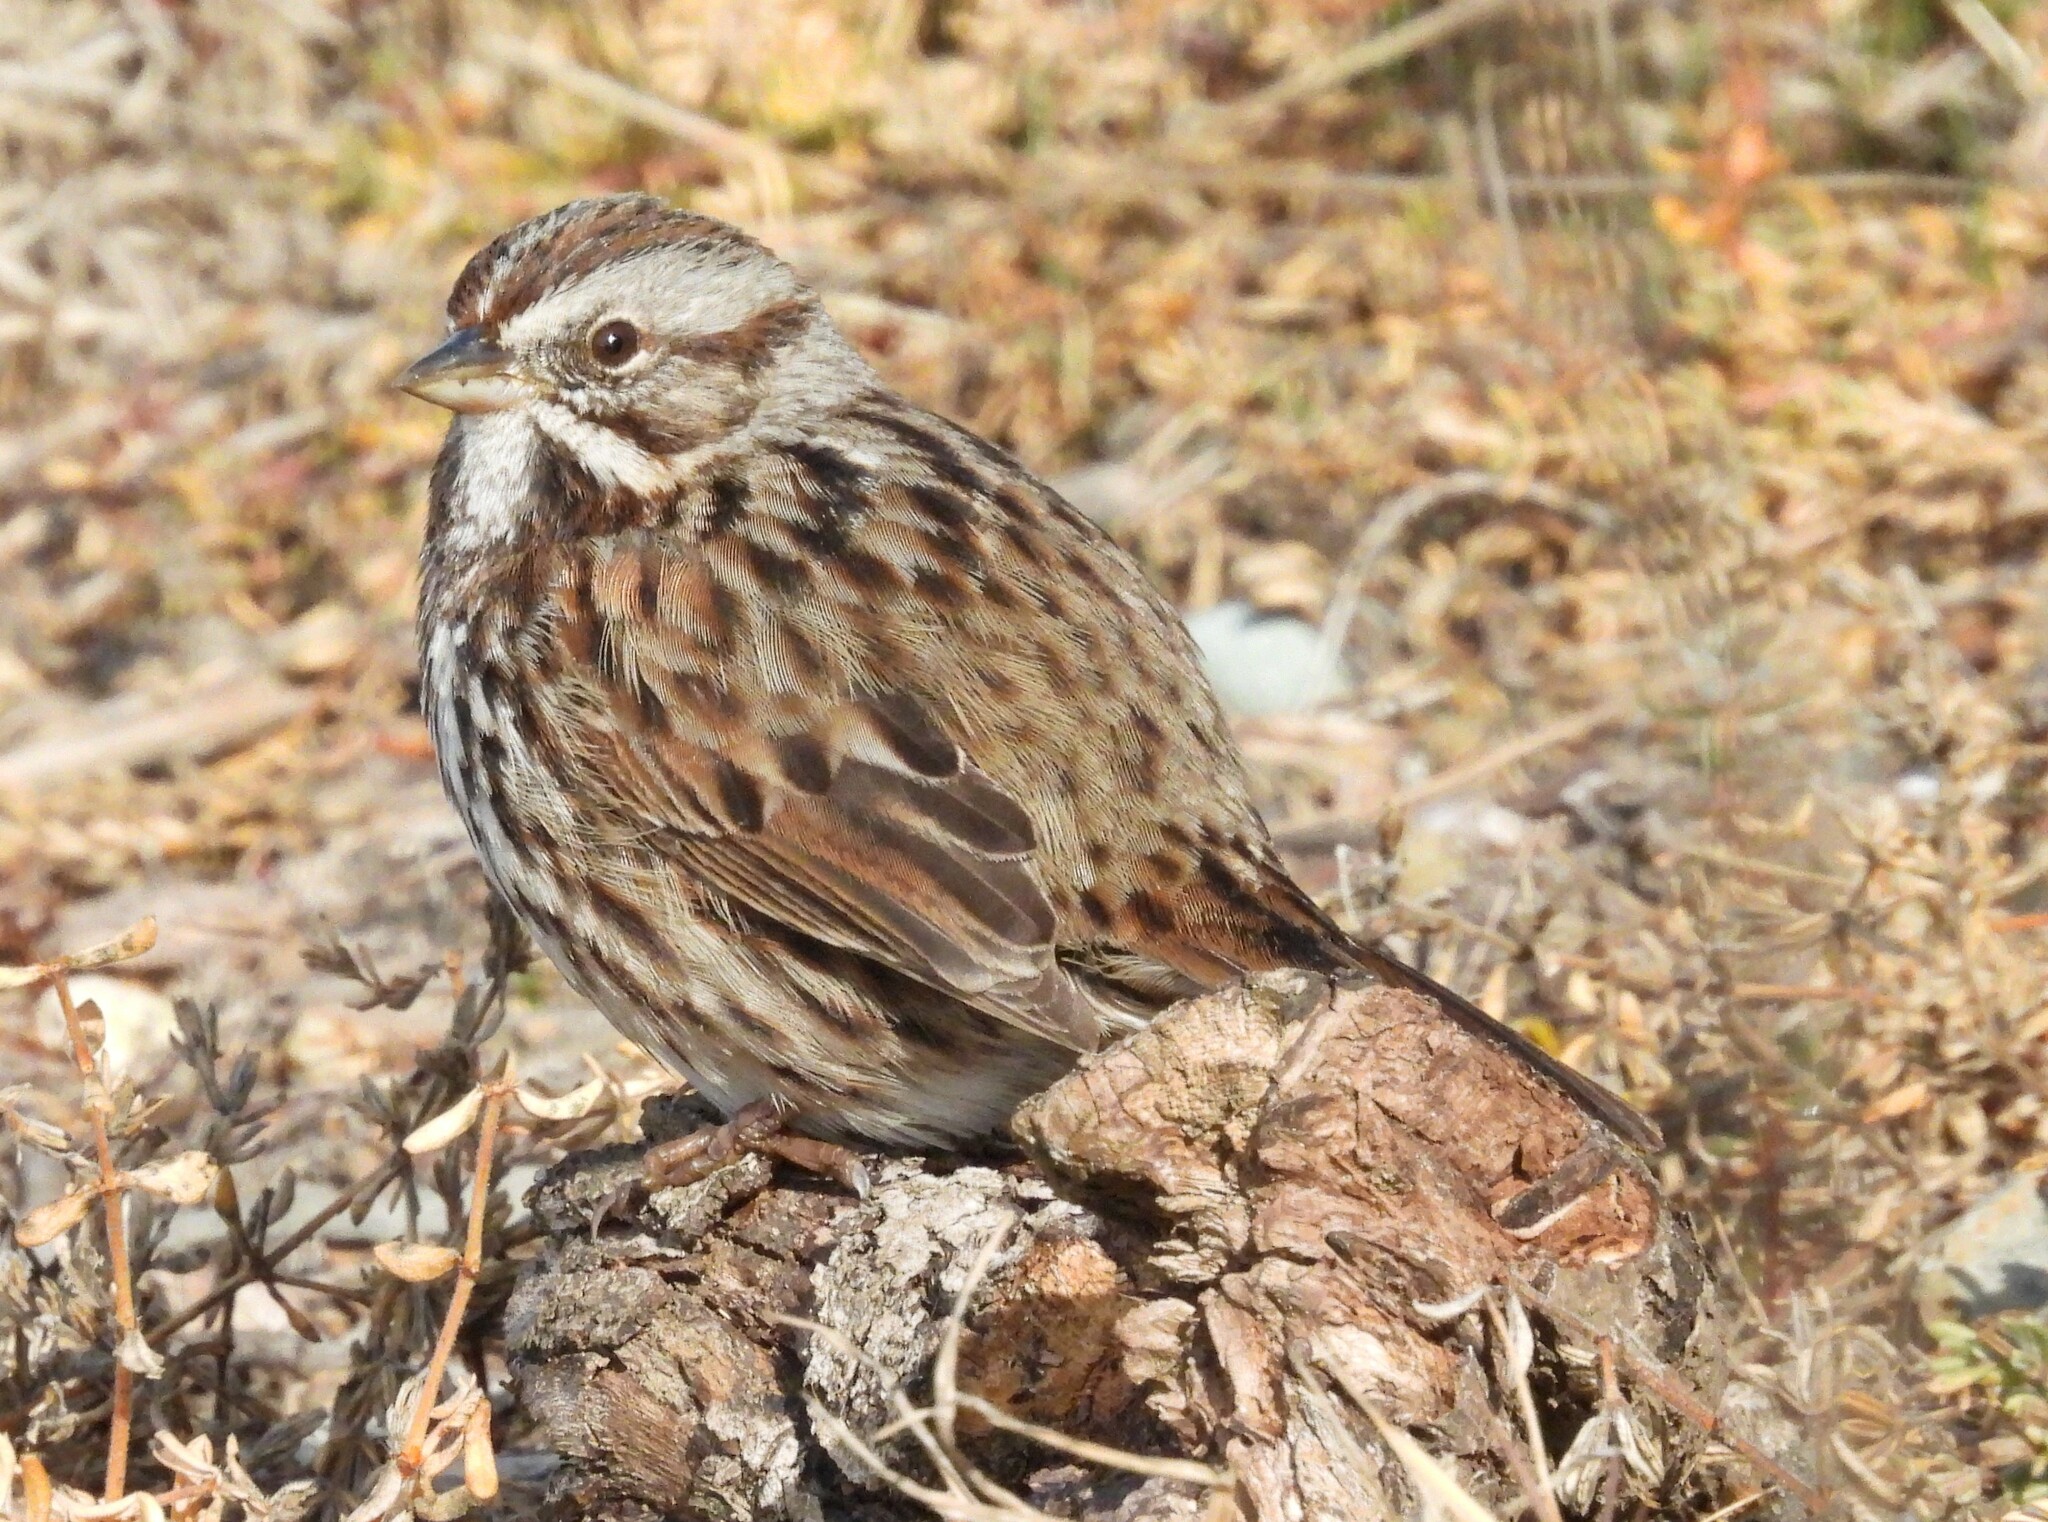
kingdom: Animalia
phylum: Chordata
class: Aves
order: Passeriformes
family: Passerellidae
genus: Melospiza
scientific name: Melospiza melodia
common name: Song sparrow
